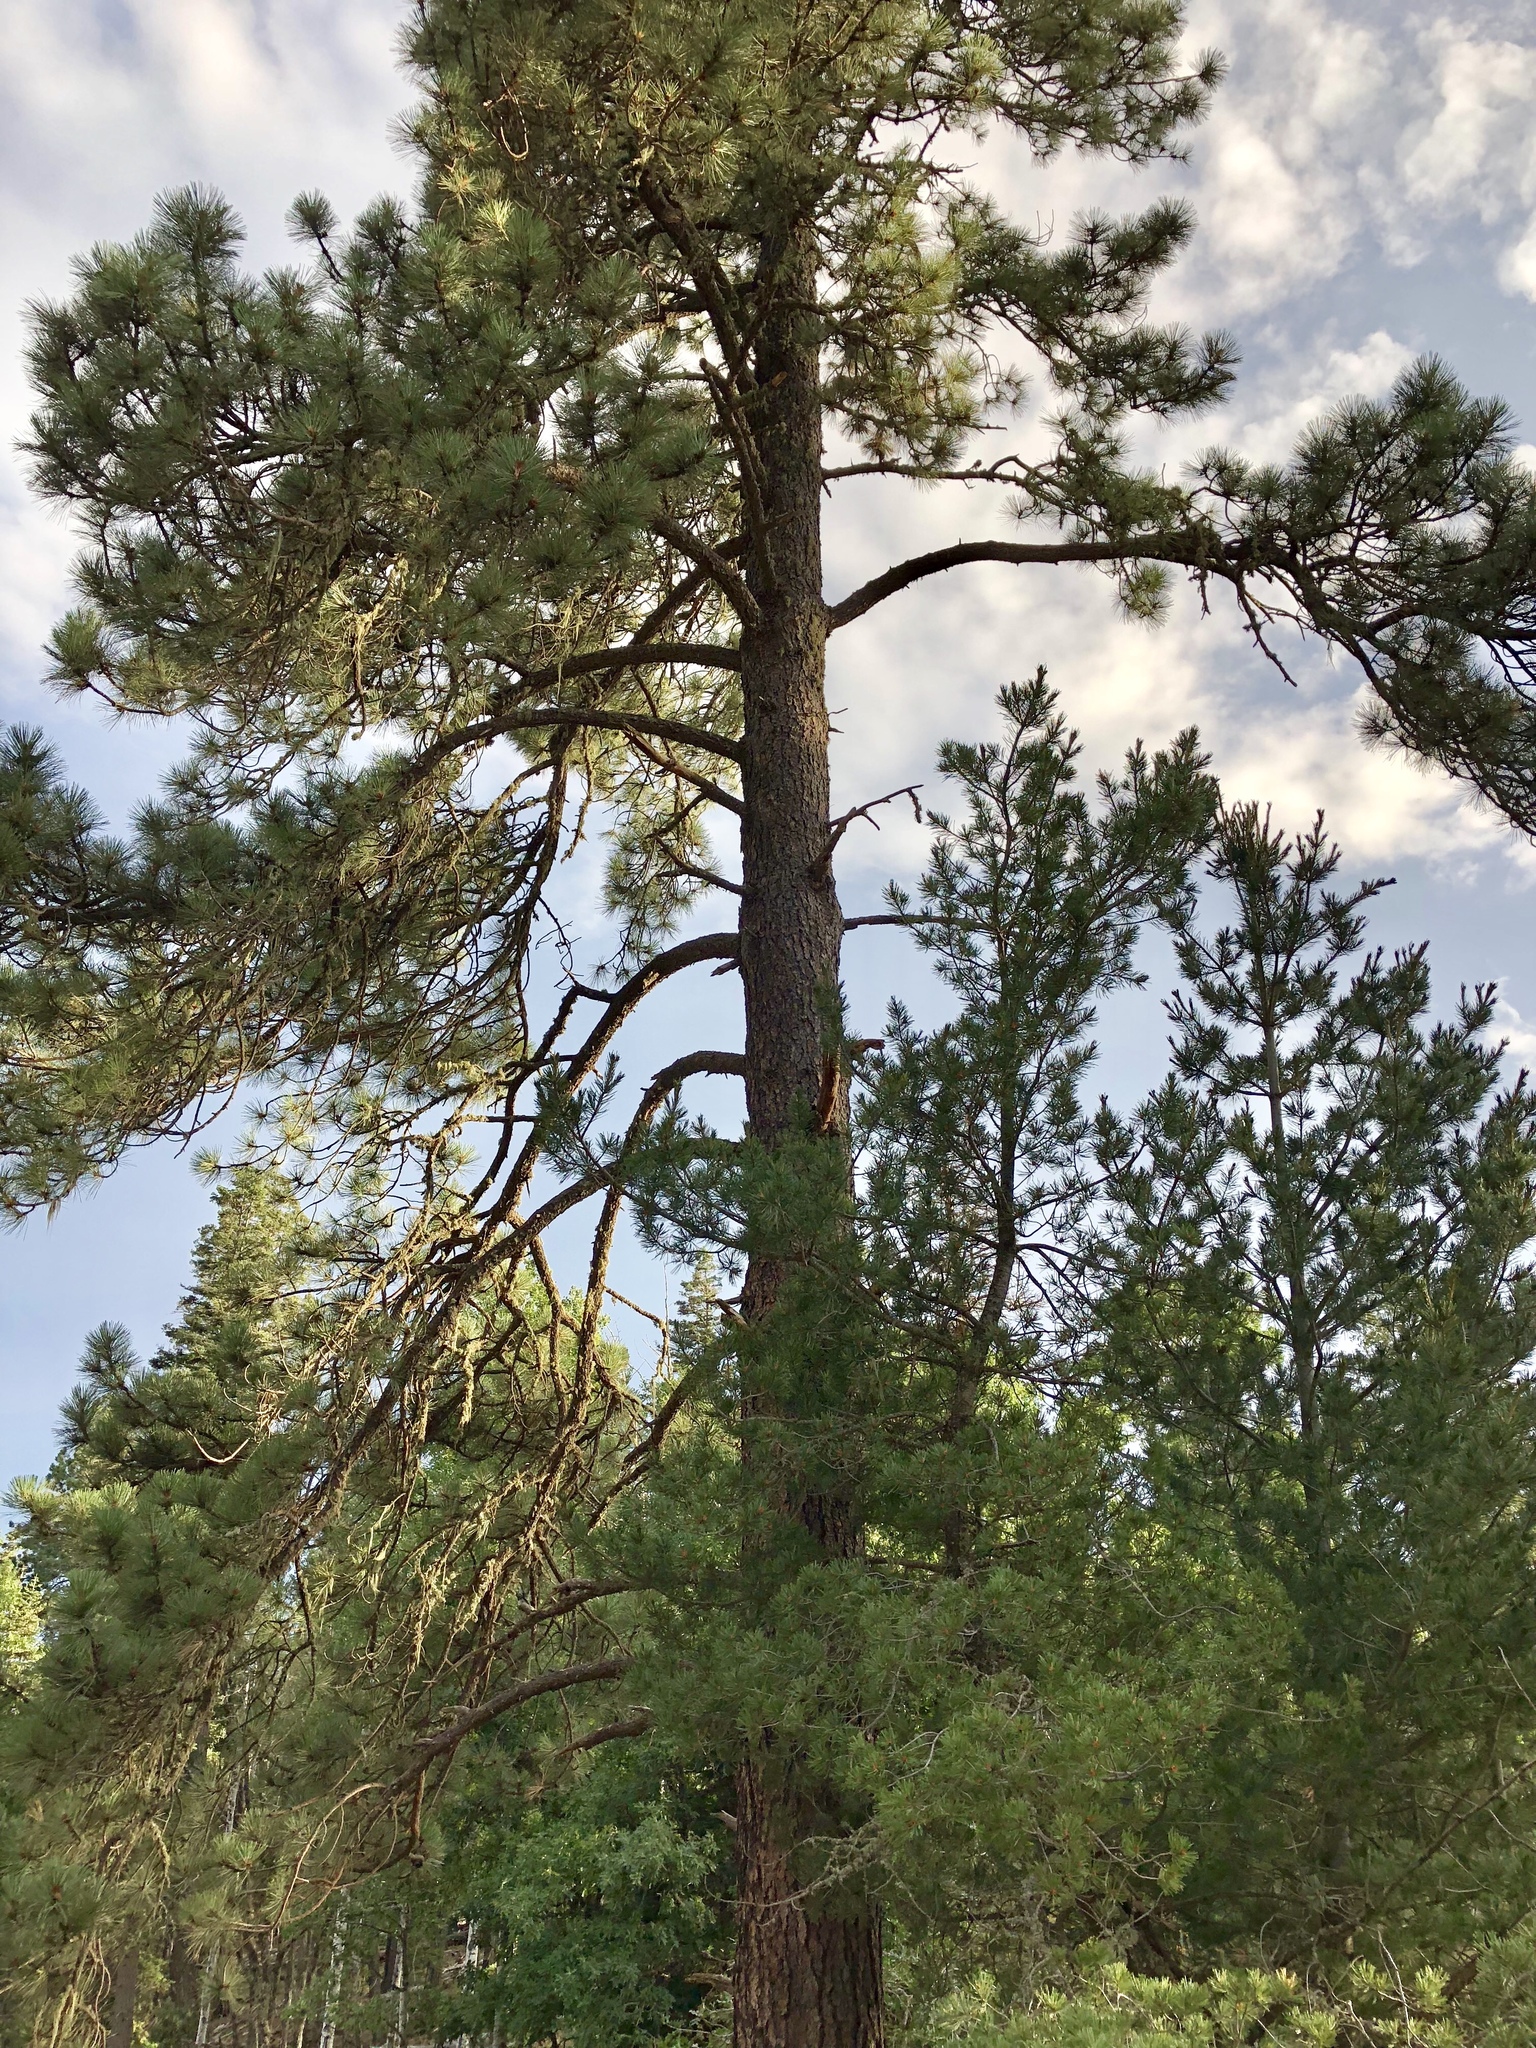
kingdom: Plantae
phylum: Tracheophyta
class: Pinopsida
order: Pinales
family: Pinaceae
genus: Pinus
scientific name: Pinus ponderosa
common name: Western yellow-pine
